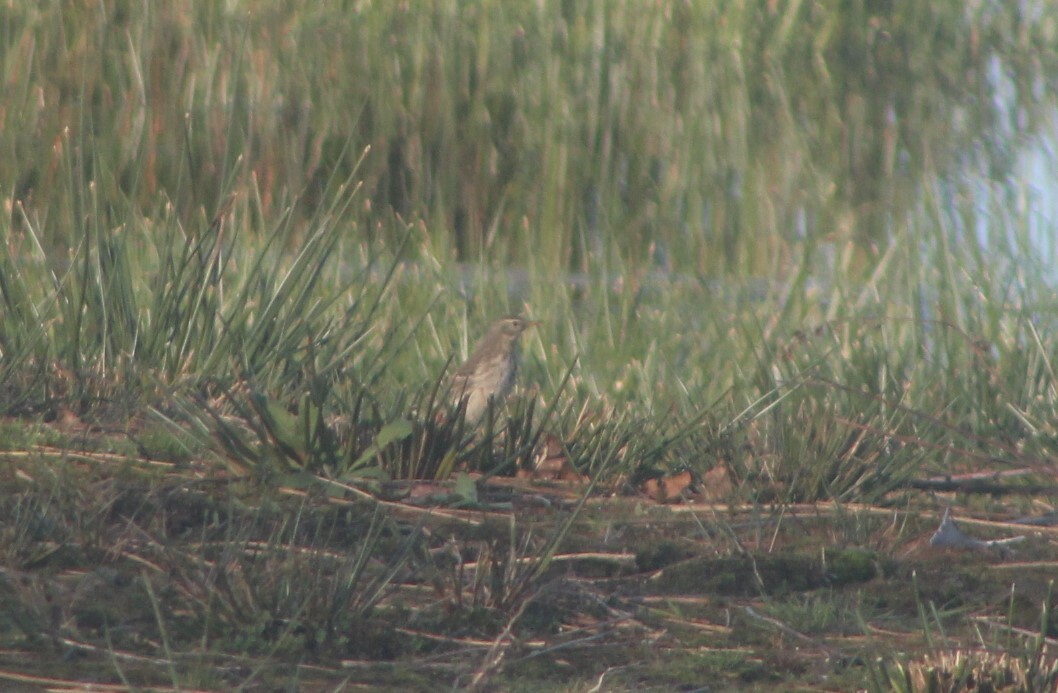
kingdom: Animalia
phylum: Chordata
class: Aves
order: Passeriformes
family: Motacillidae
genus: Anthus
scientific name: Anthus spinoletta
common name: Water pipit
